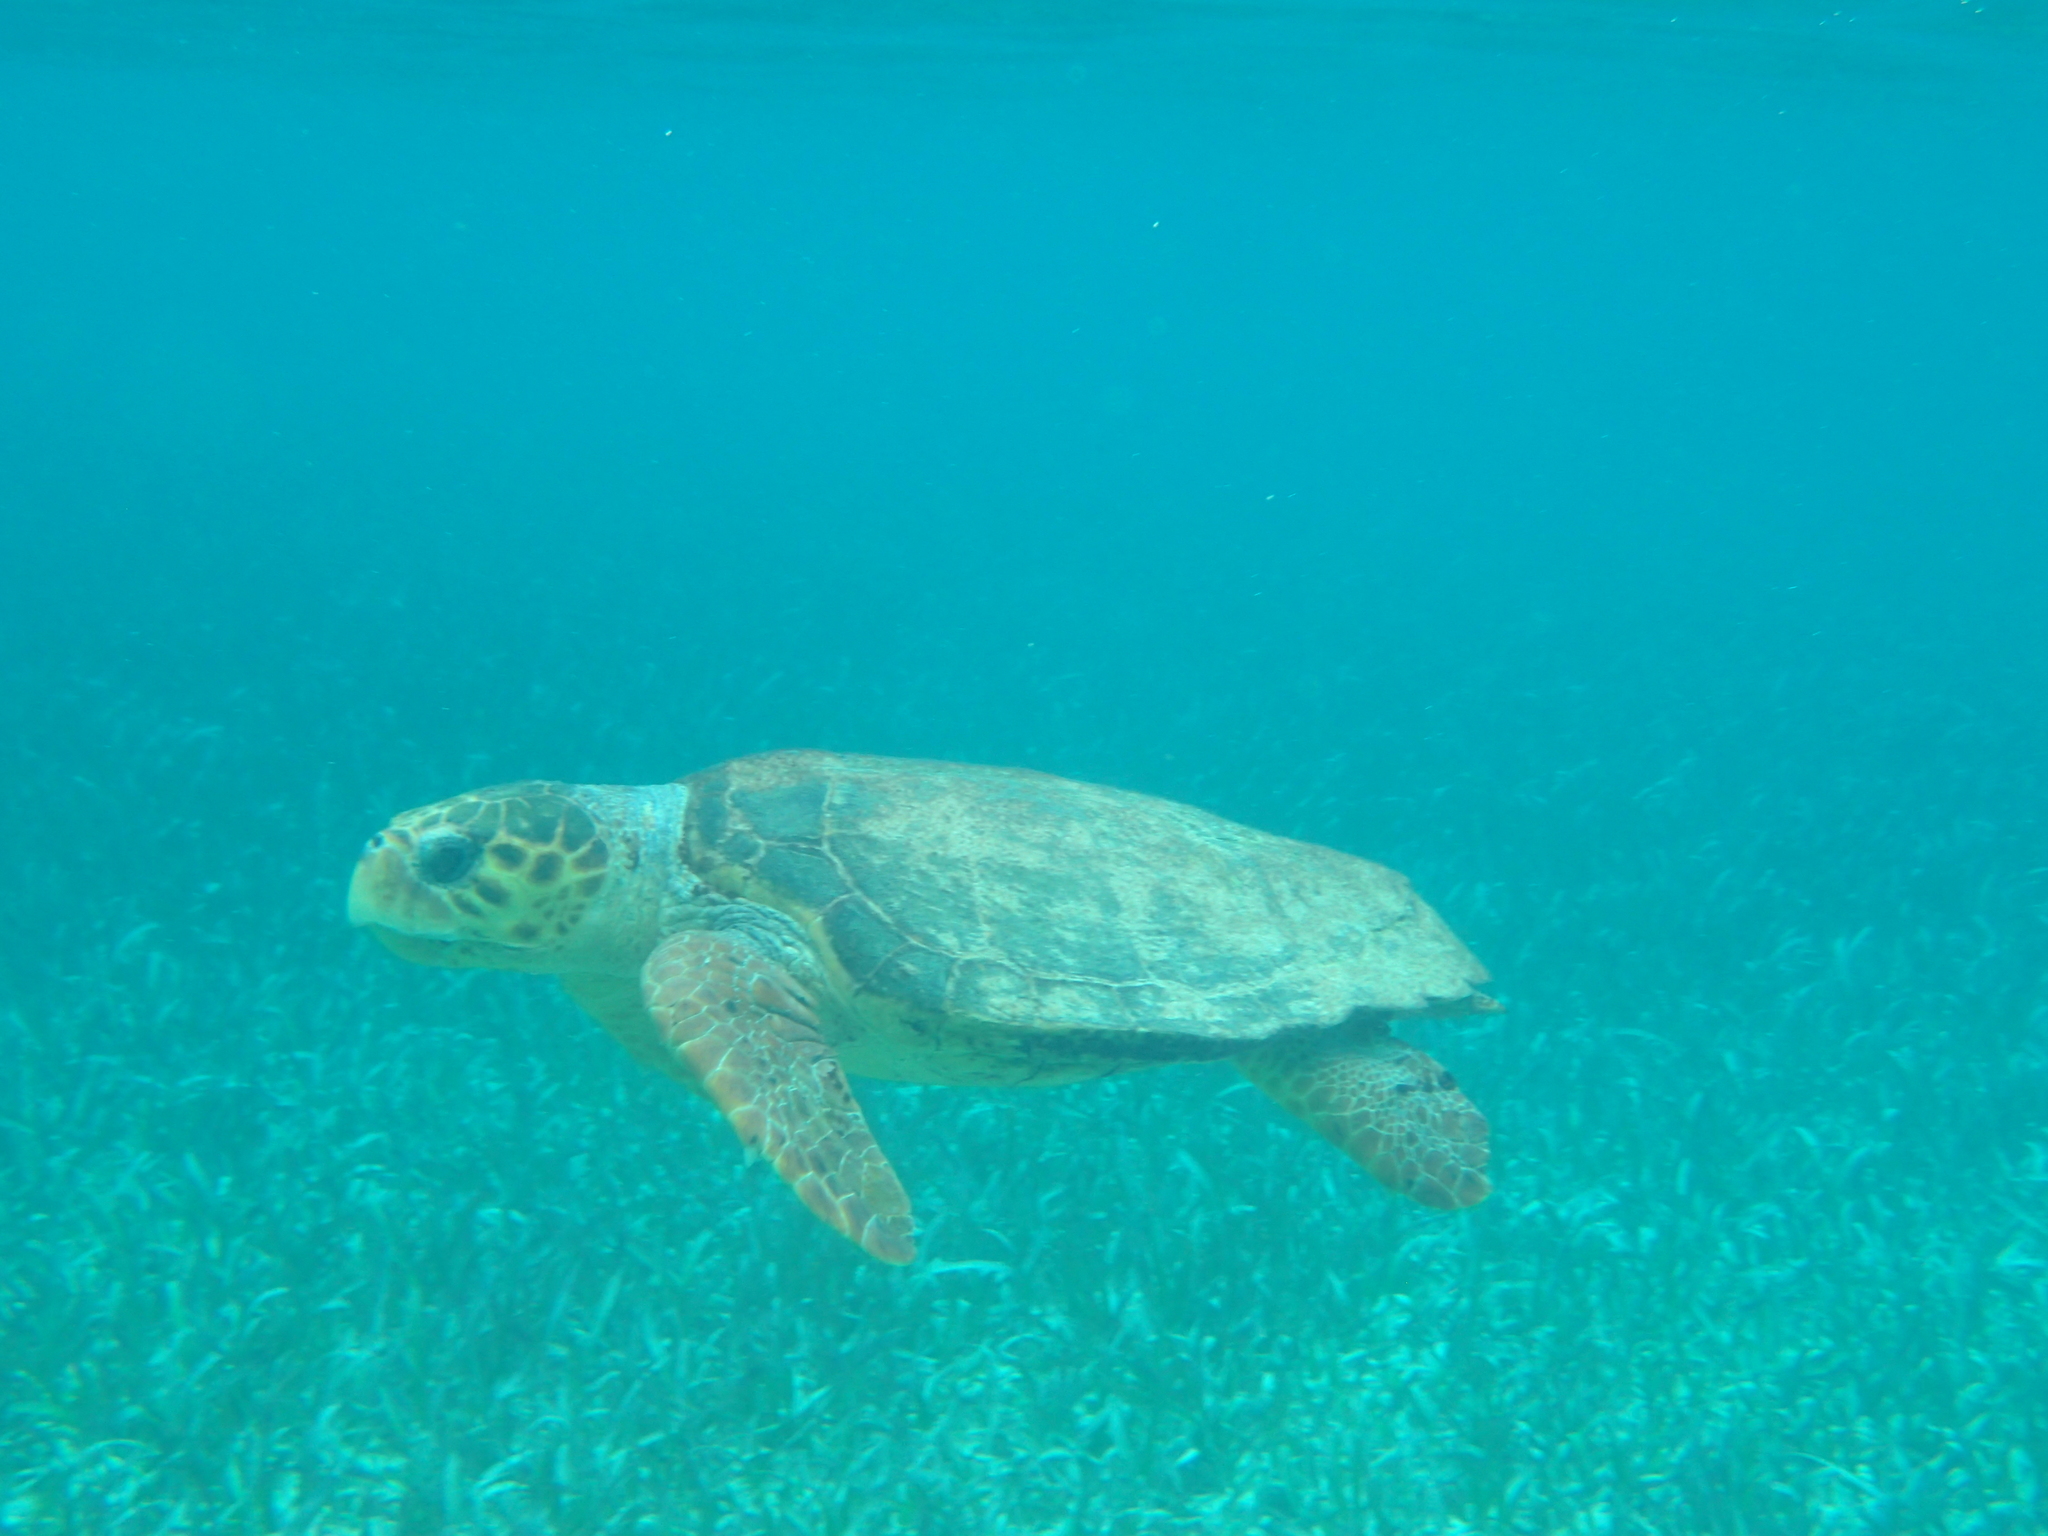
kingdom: Animalia
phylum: Chordata
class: Testudines
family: Cheloniidae
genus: Caretta
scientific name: Caretta caretta
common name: Loggerhead sea turtle
